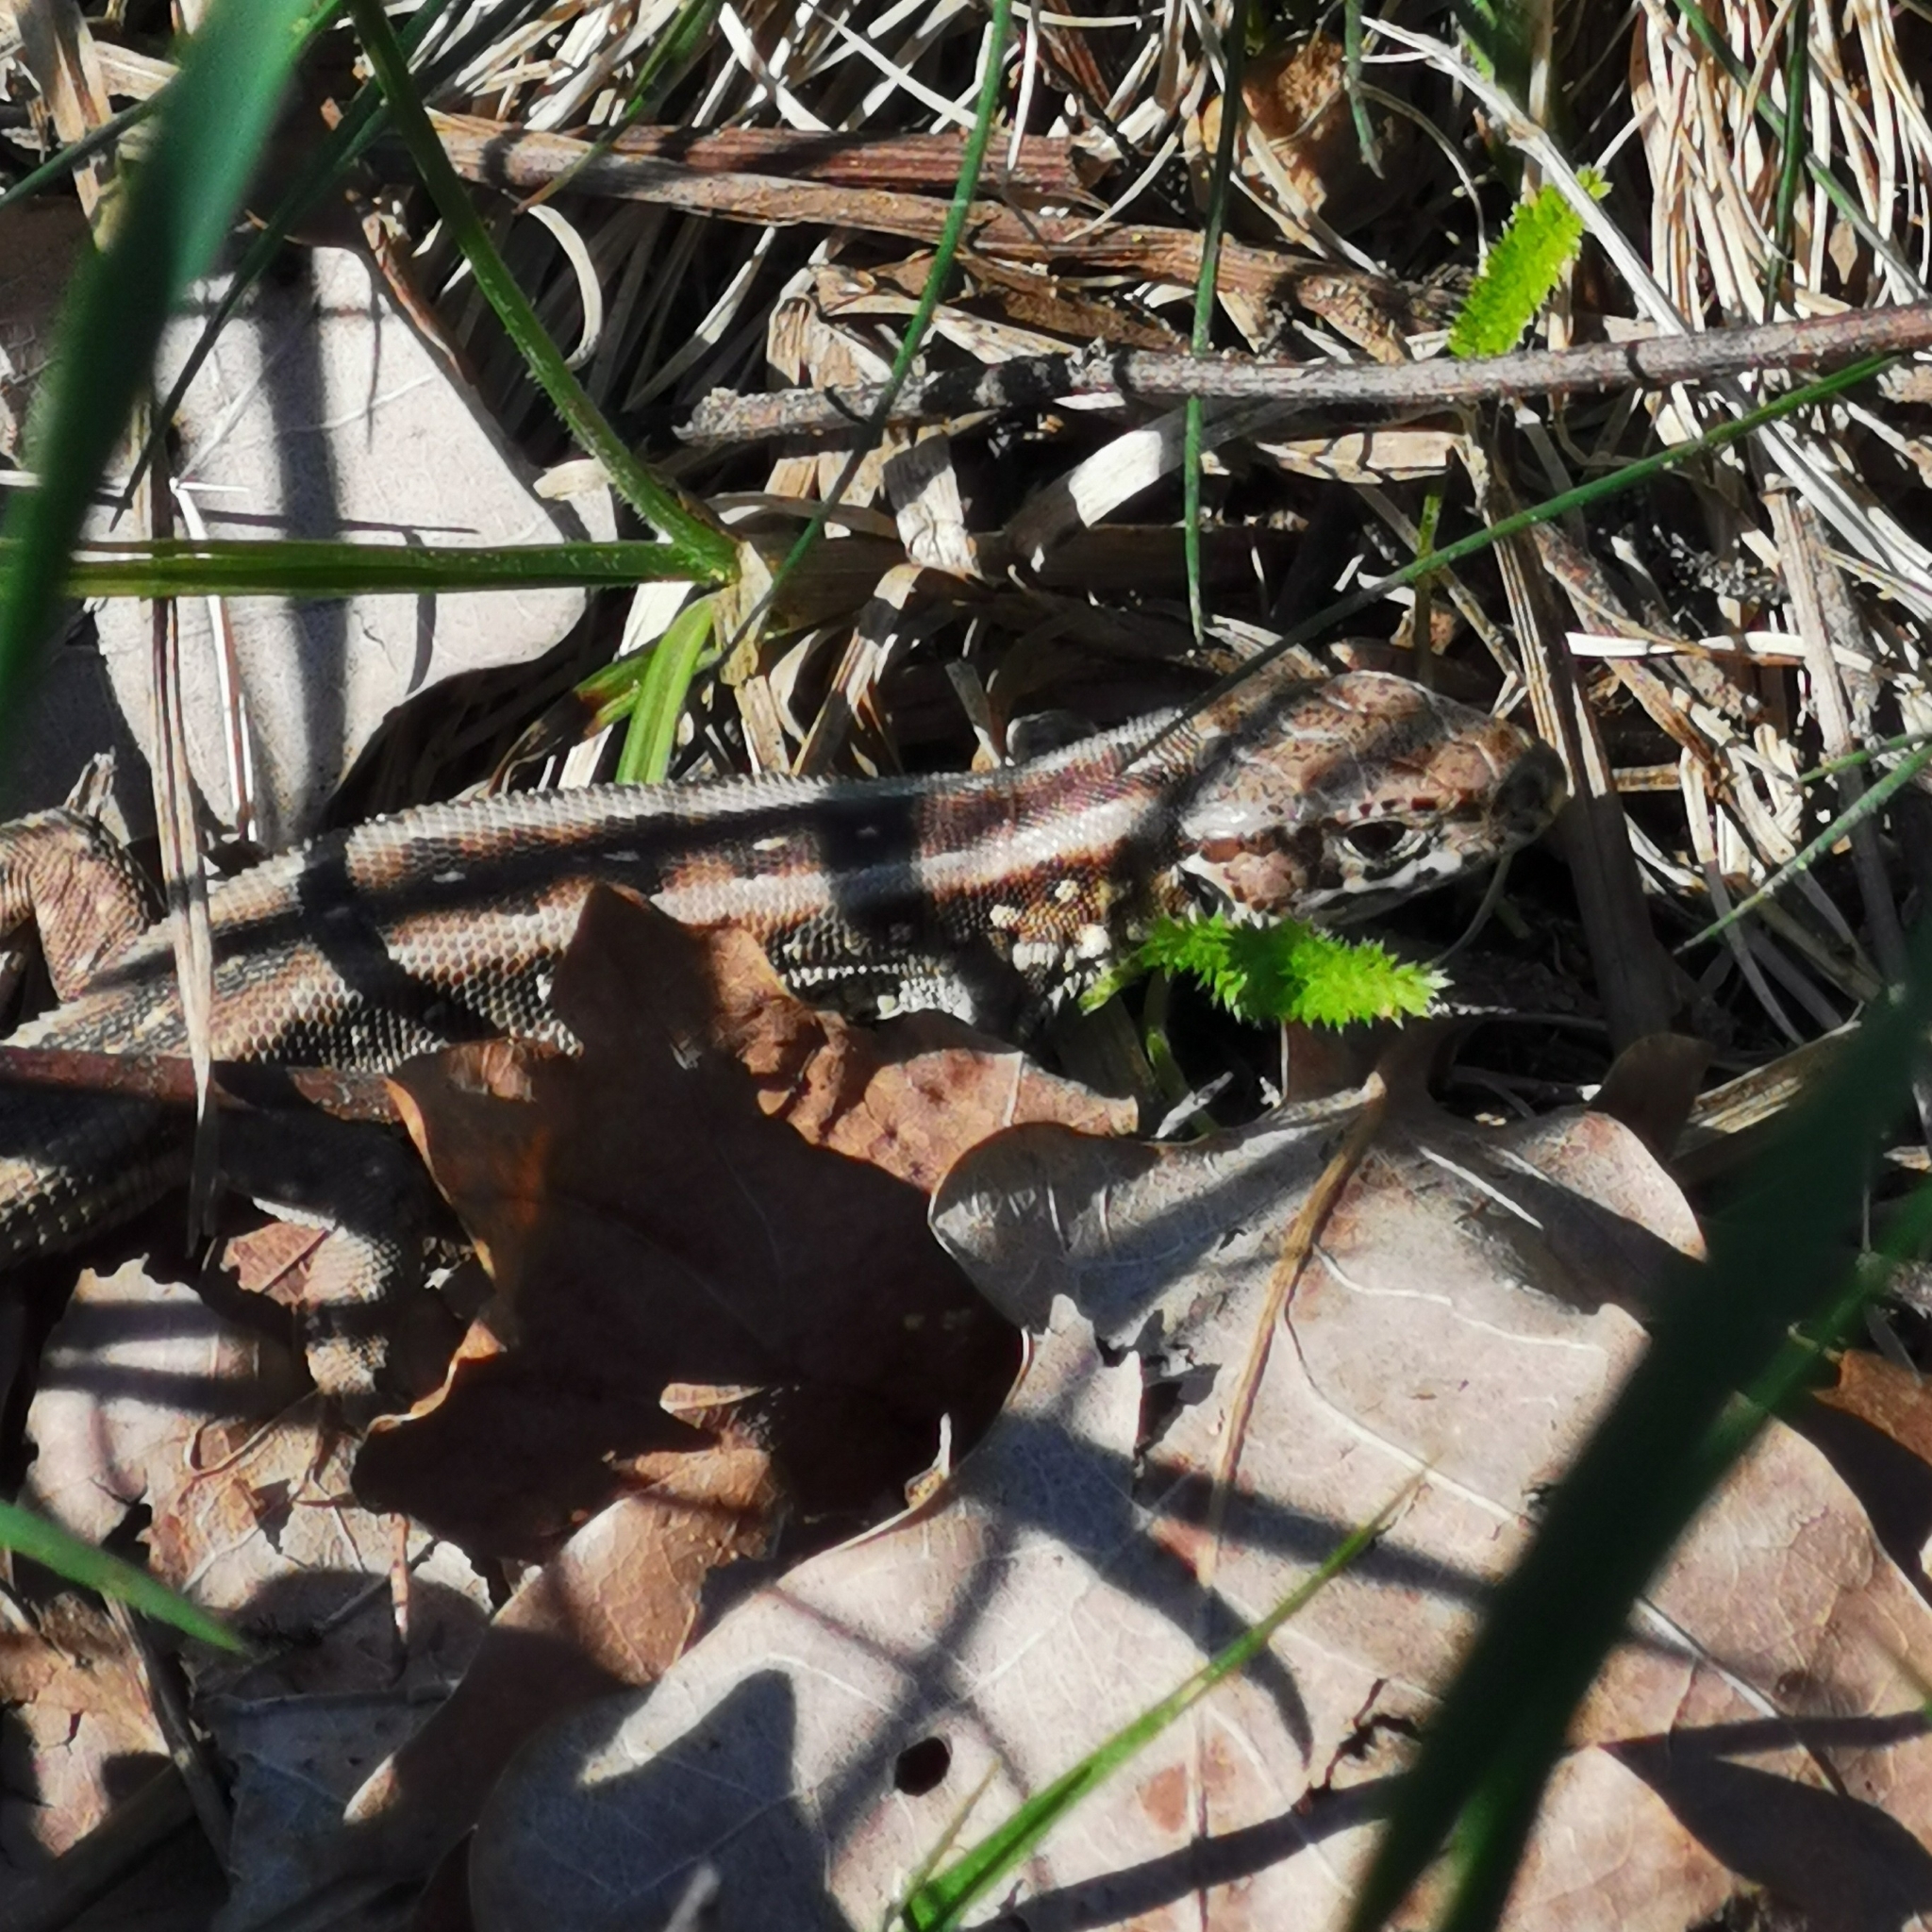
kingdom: Animalia
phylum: Chordata
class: Squamata
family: Lacertidae
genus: Lacerta
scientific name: Lacerta agilis
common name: Sand lizard
